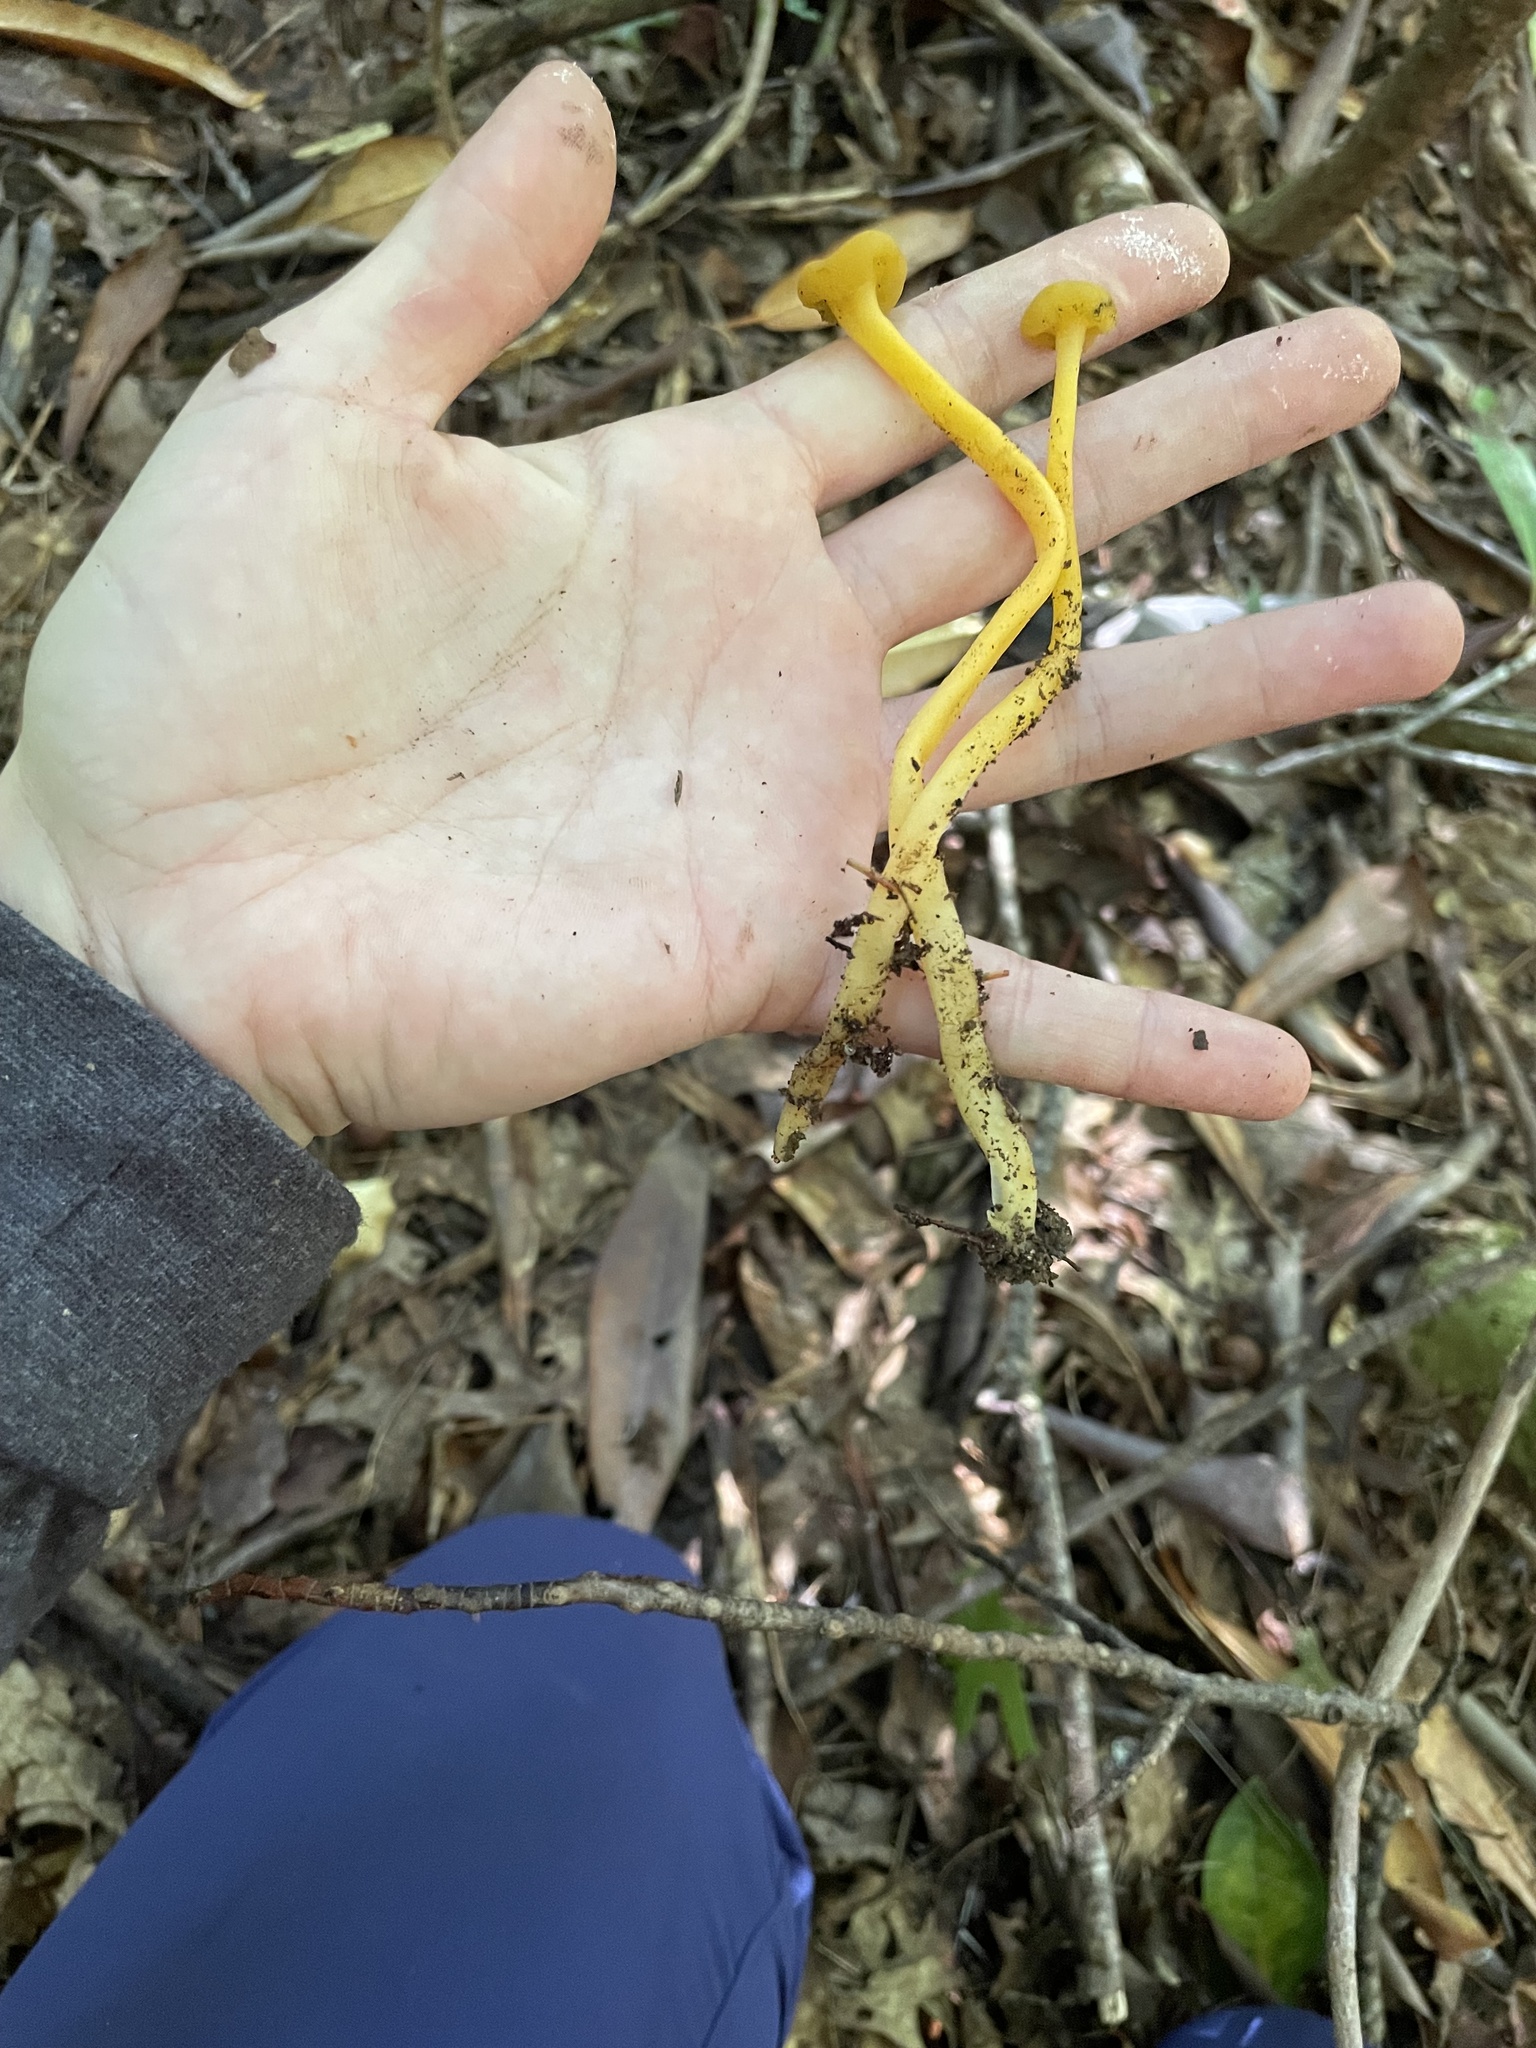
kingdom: Fungi
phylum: Ascomycota
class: Leotiomycetes
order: Leotiales
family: Leotiaceae
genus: Leotia
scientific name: Leotia lubrica
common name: Jellybaby
